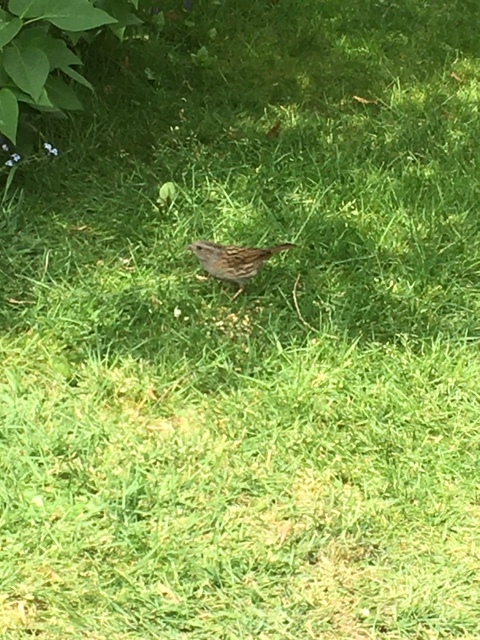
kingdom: Animalia
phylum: Chordata
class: Aves
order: Passeriformes
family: Prunellidae
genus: Prunella
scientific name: Prunella modularis
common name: Dunnock
